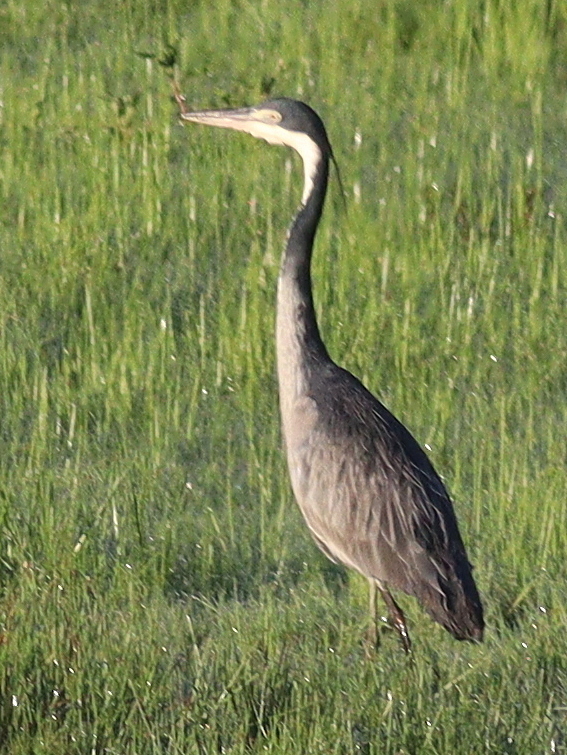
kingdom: Animalia
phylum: Chordata
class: Aves
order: Pelecaniformes
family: Ardeidae
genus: Ardea
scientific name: Ardea melanocephala
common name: Black-headed heron
